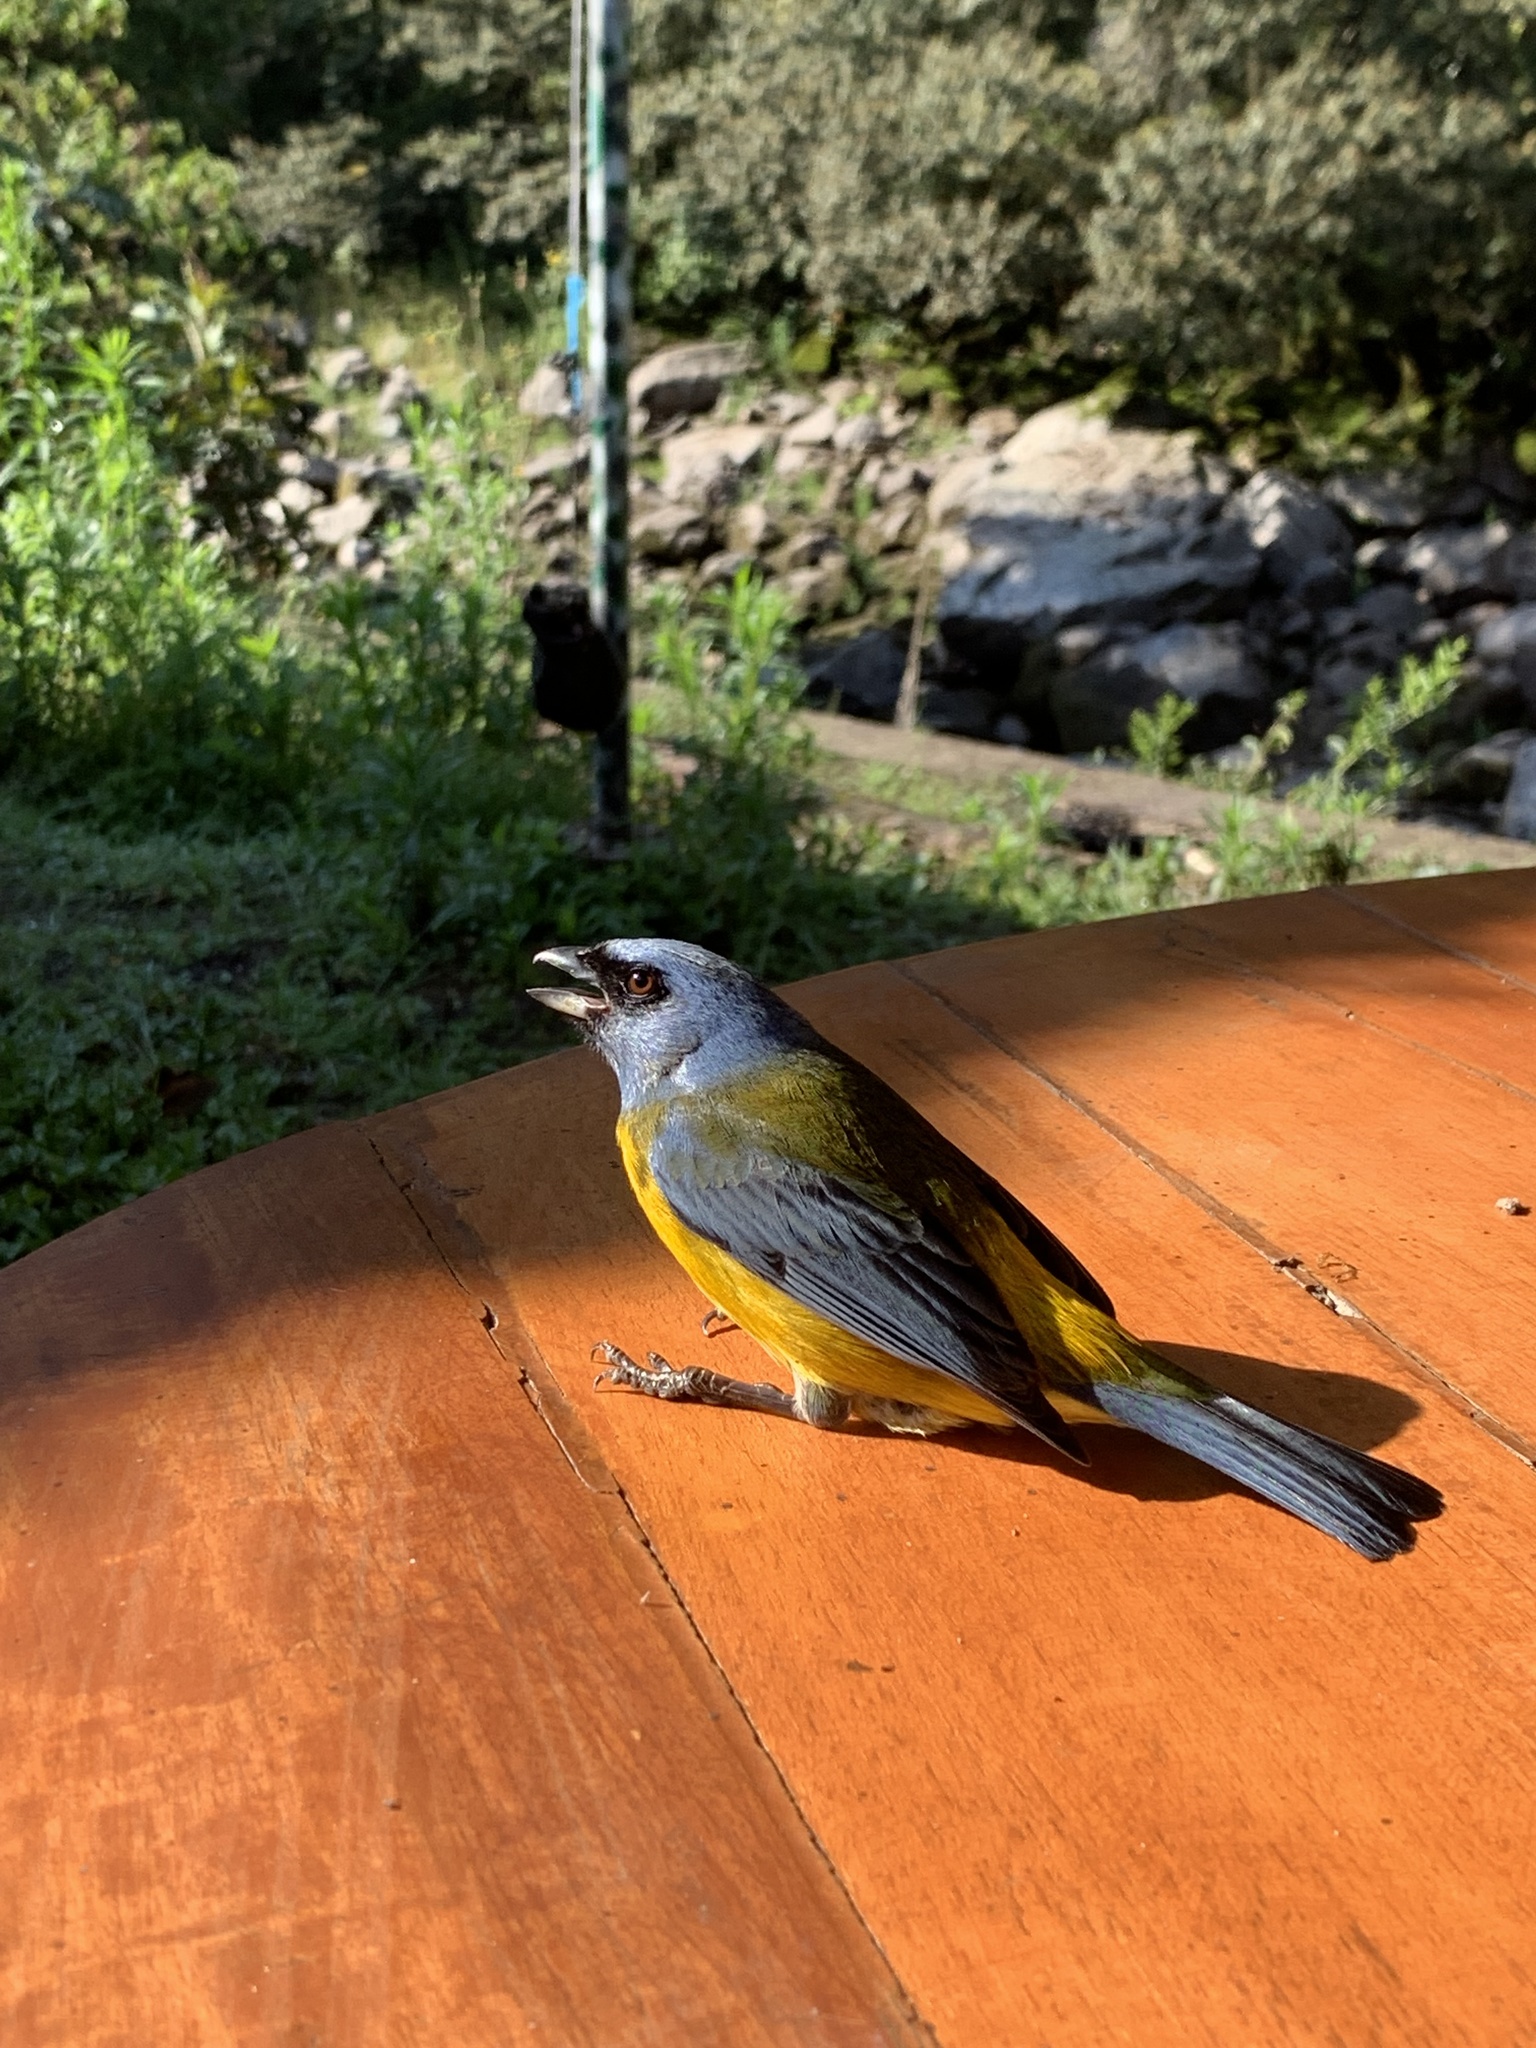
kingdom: Animalia
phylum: Chordata
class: Aves
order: Passeriformes
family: Thraupidae
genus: Rauenia
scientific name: Rauenia bonariensis
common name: Blue-and-yellow tanager
